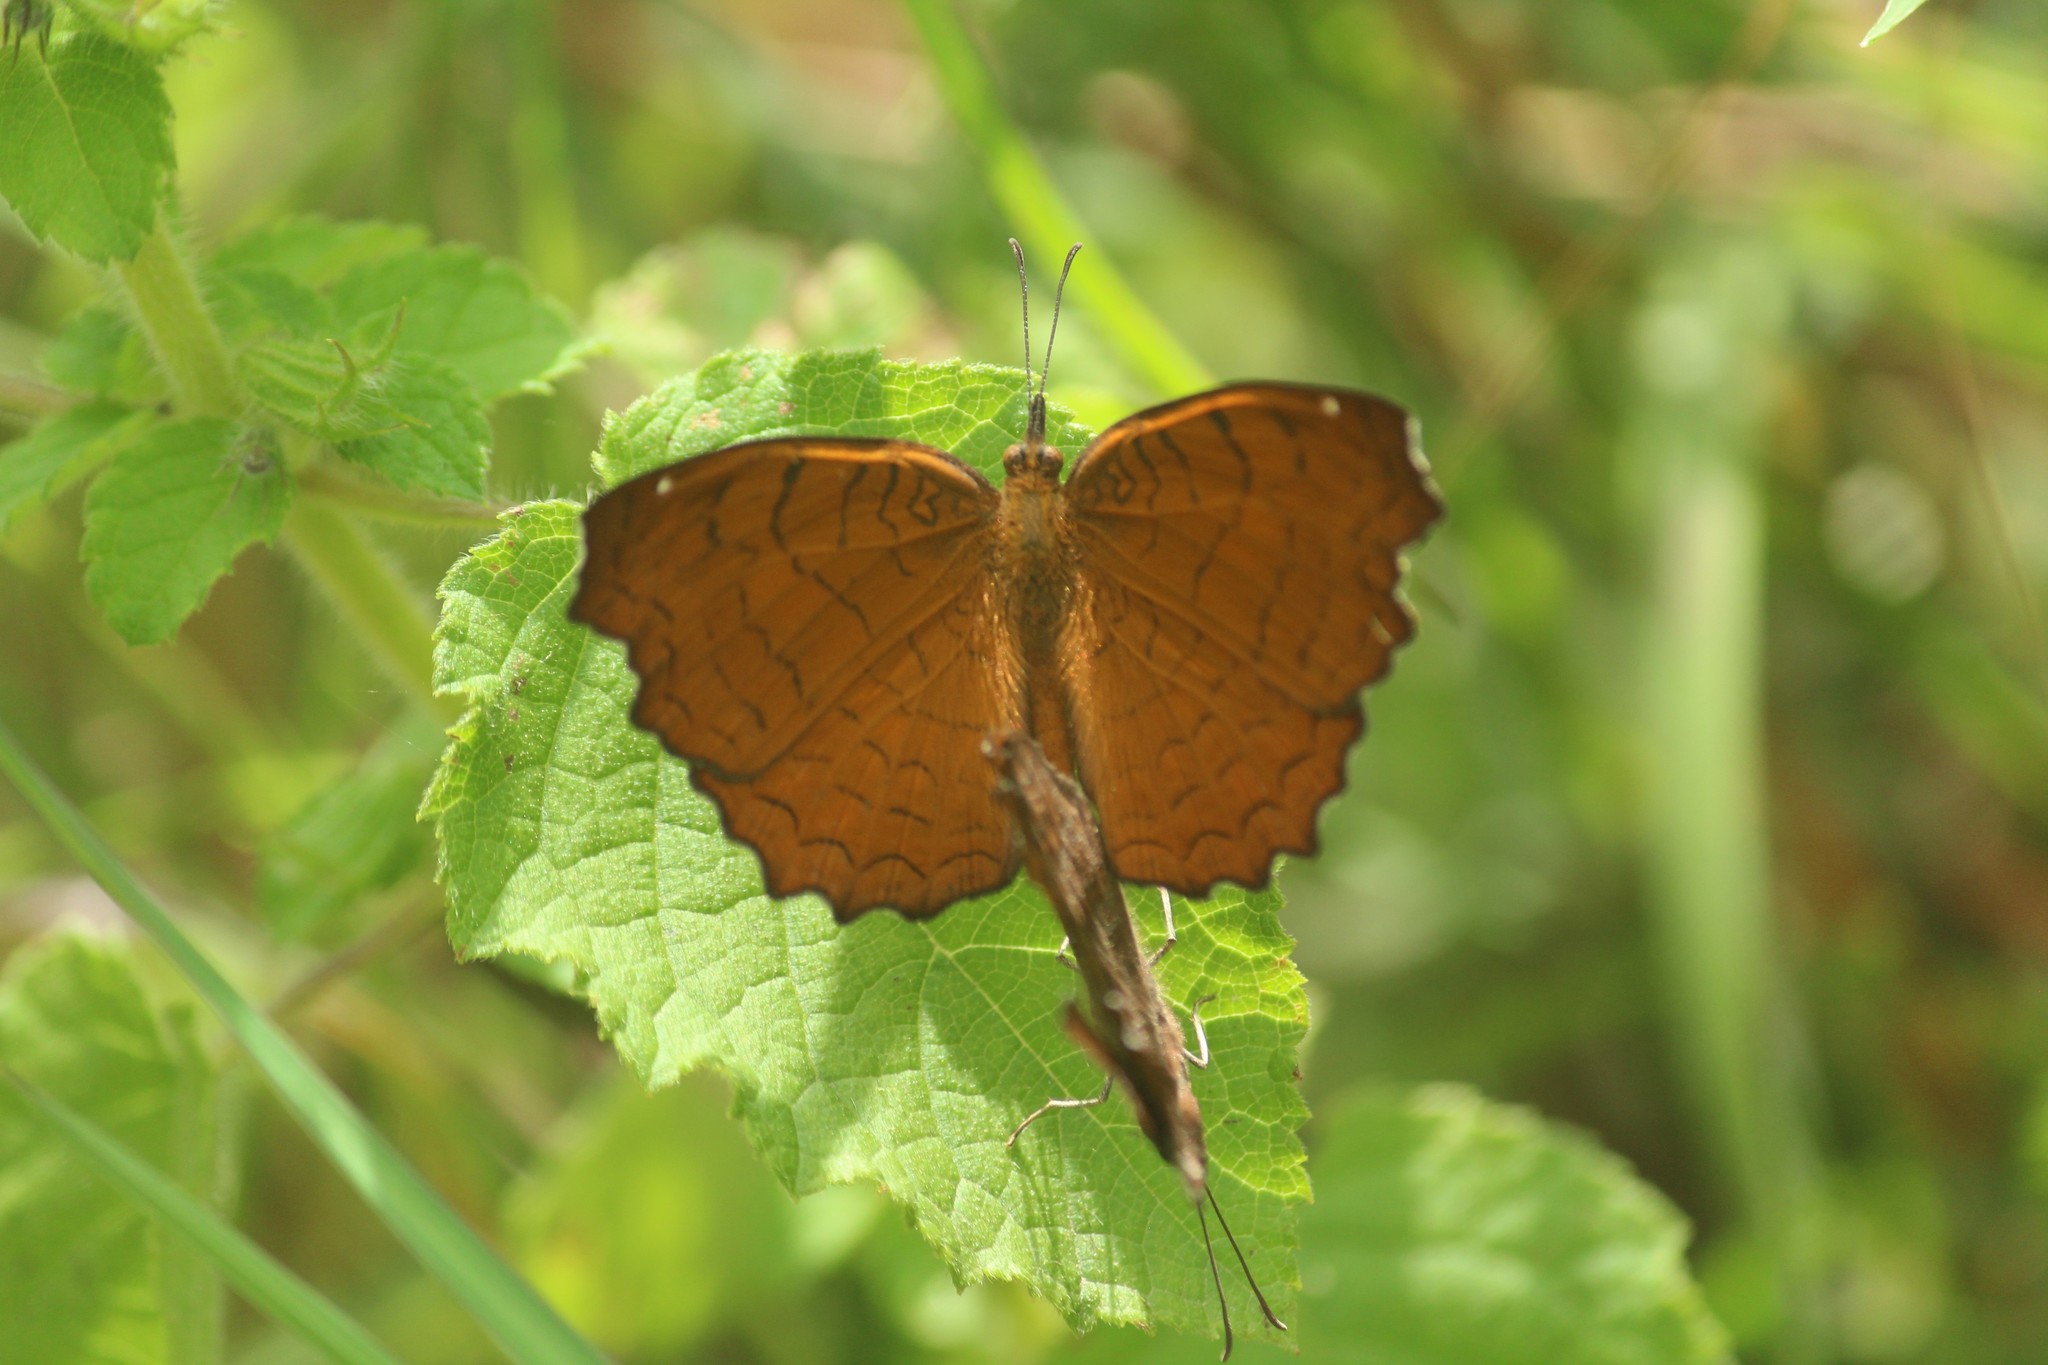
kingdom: Animalia
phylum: Arthropoda
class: Insecta
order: Lepidoptera
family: Nymphalidae
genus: Ariadne
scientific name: Ariadne ariadne
